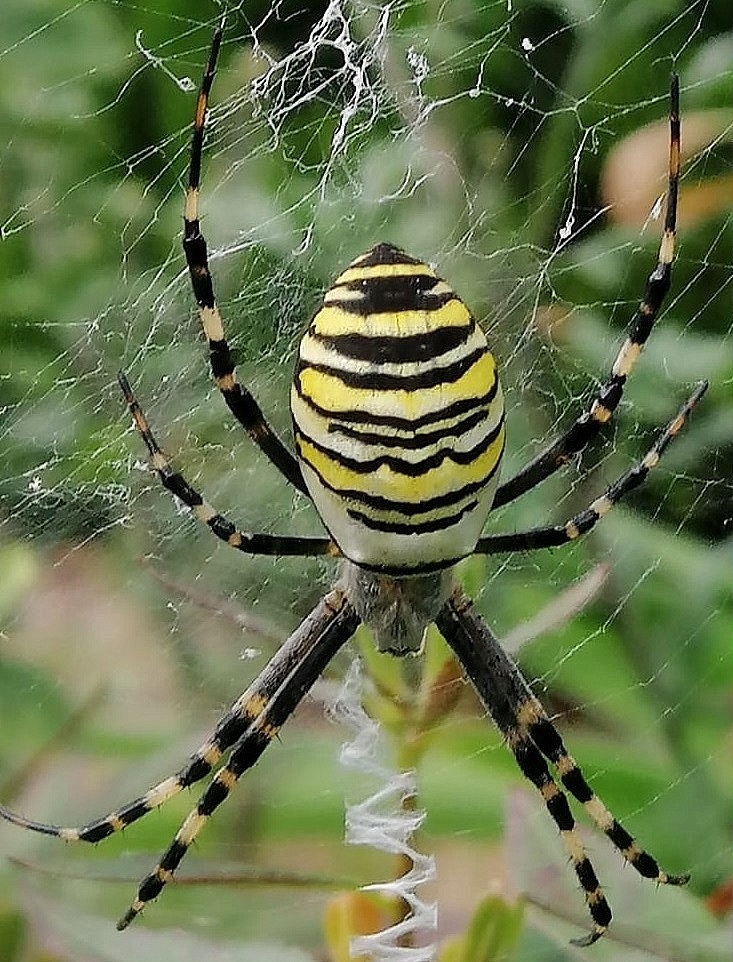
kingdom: Animalia
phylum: Arthropoda
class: Arachnida
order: Araneae
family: Araneidae
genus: Argiope
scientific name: Argiope bruennichi
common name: Wasp spider
